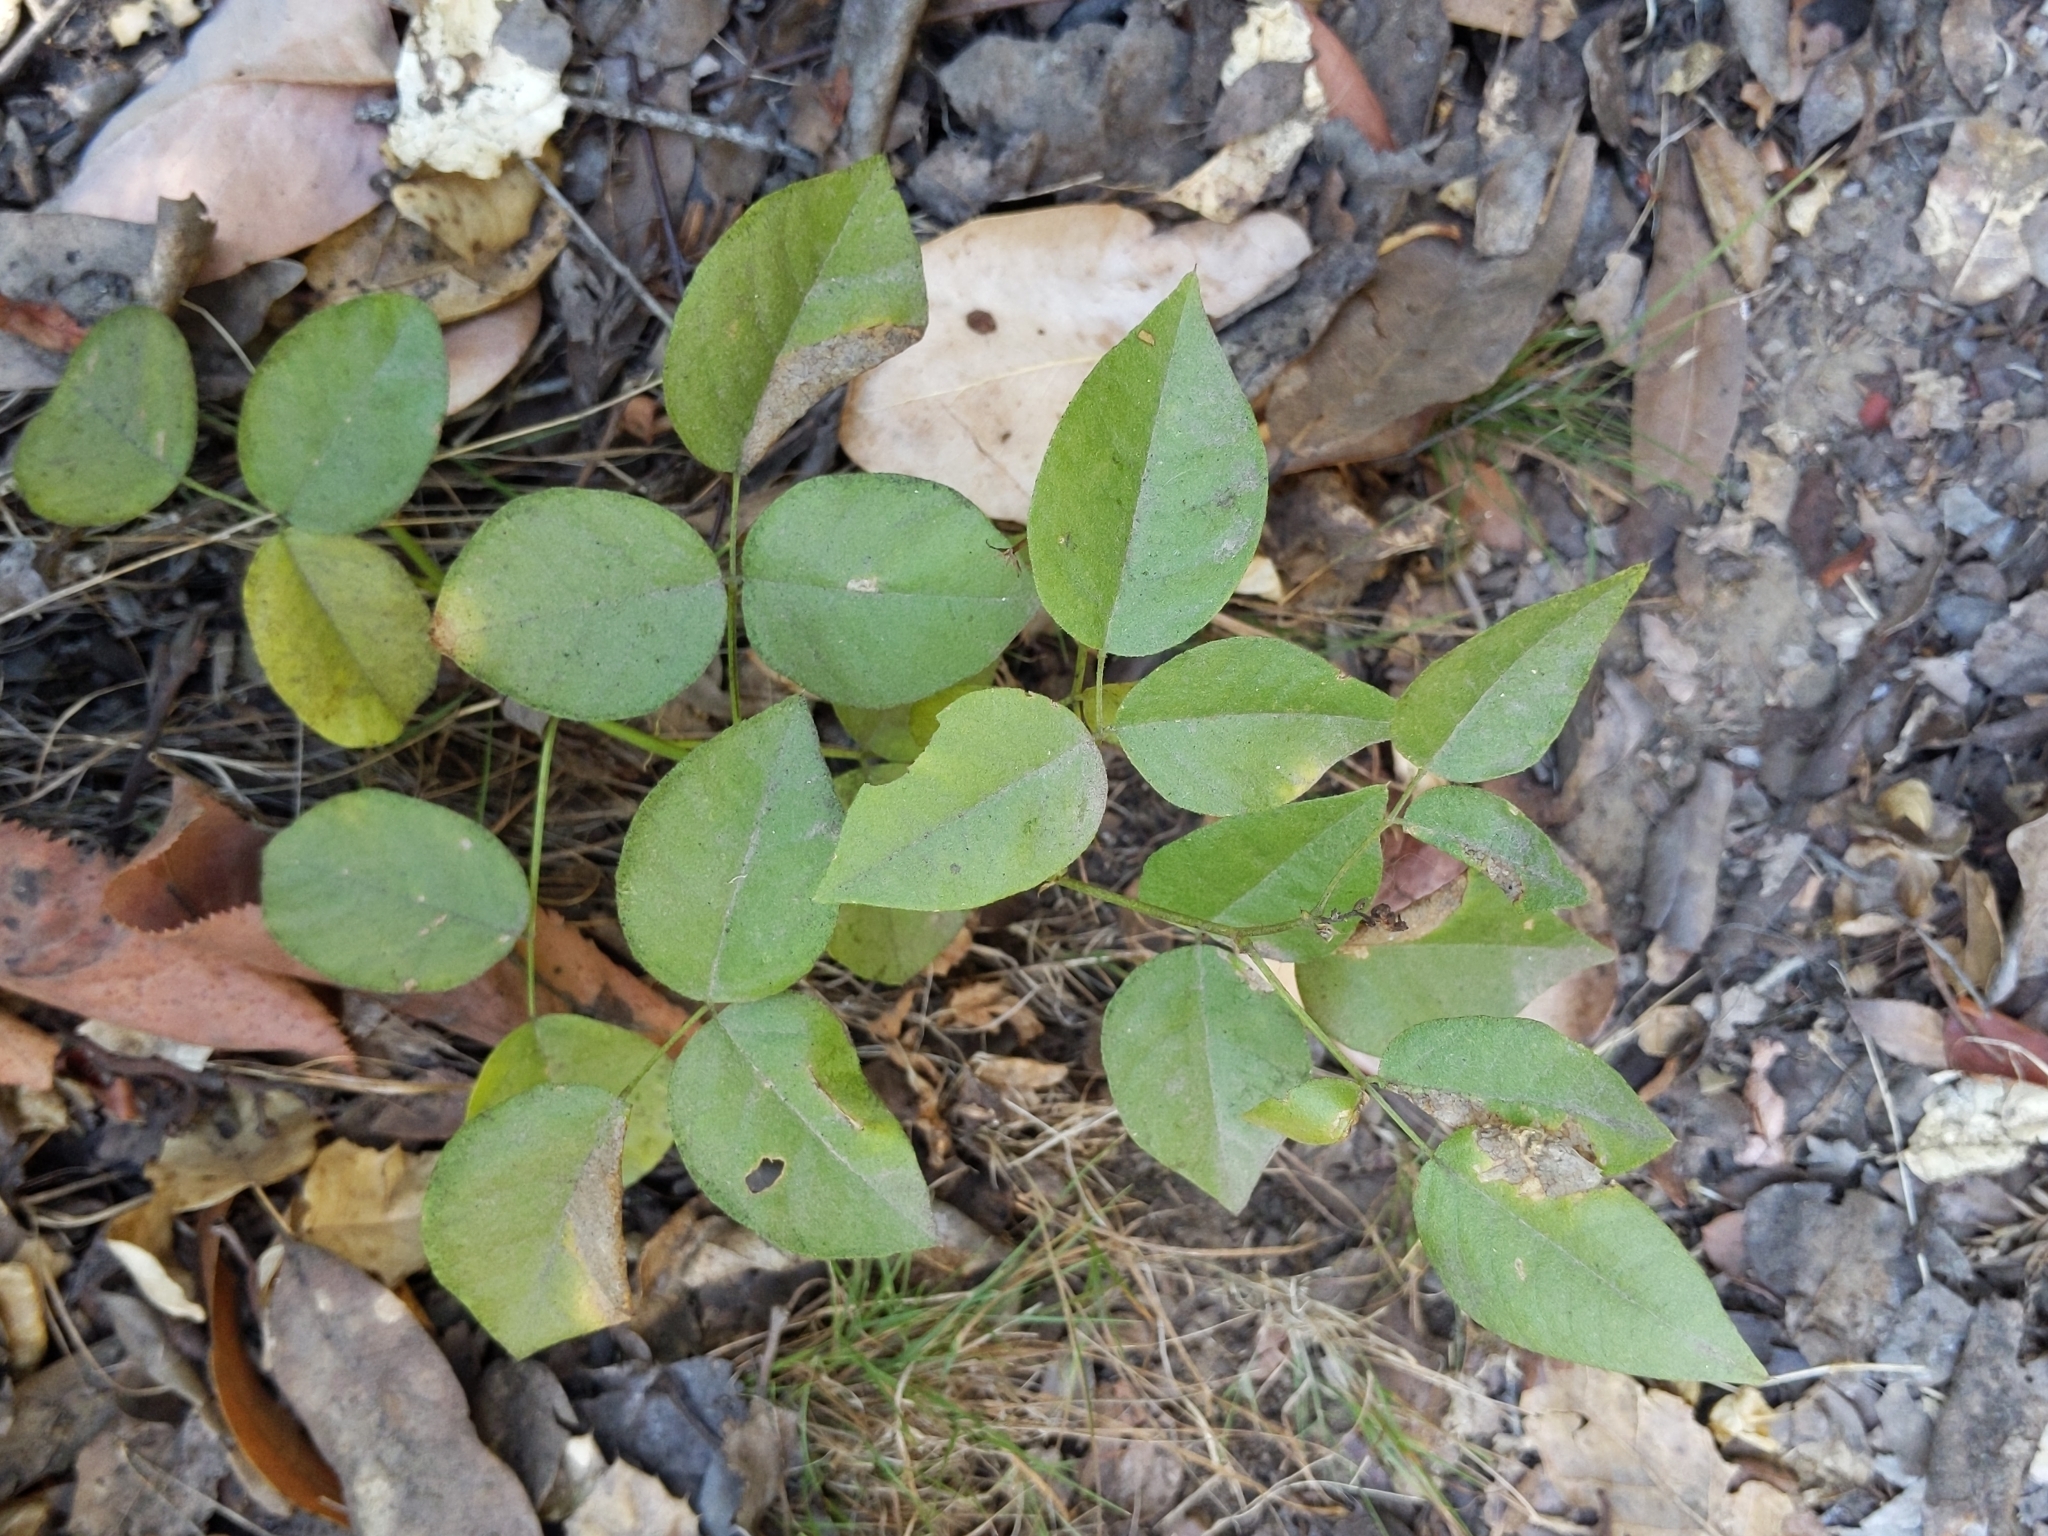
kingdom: Plantae
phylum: Tracheophyta
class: Magnoliopsida
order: Fabales
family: Fabaceae
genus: Rupertia
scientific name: Rupertia physodes
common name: California-tea
